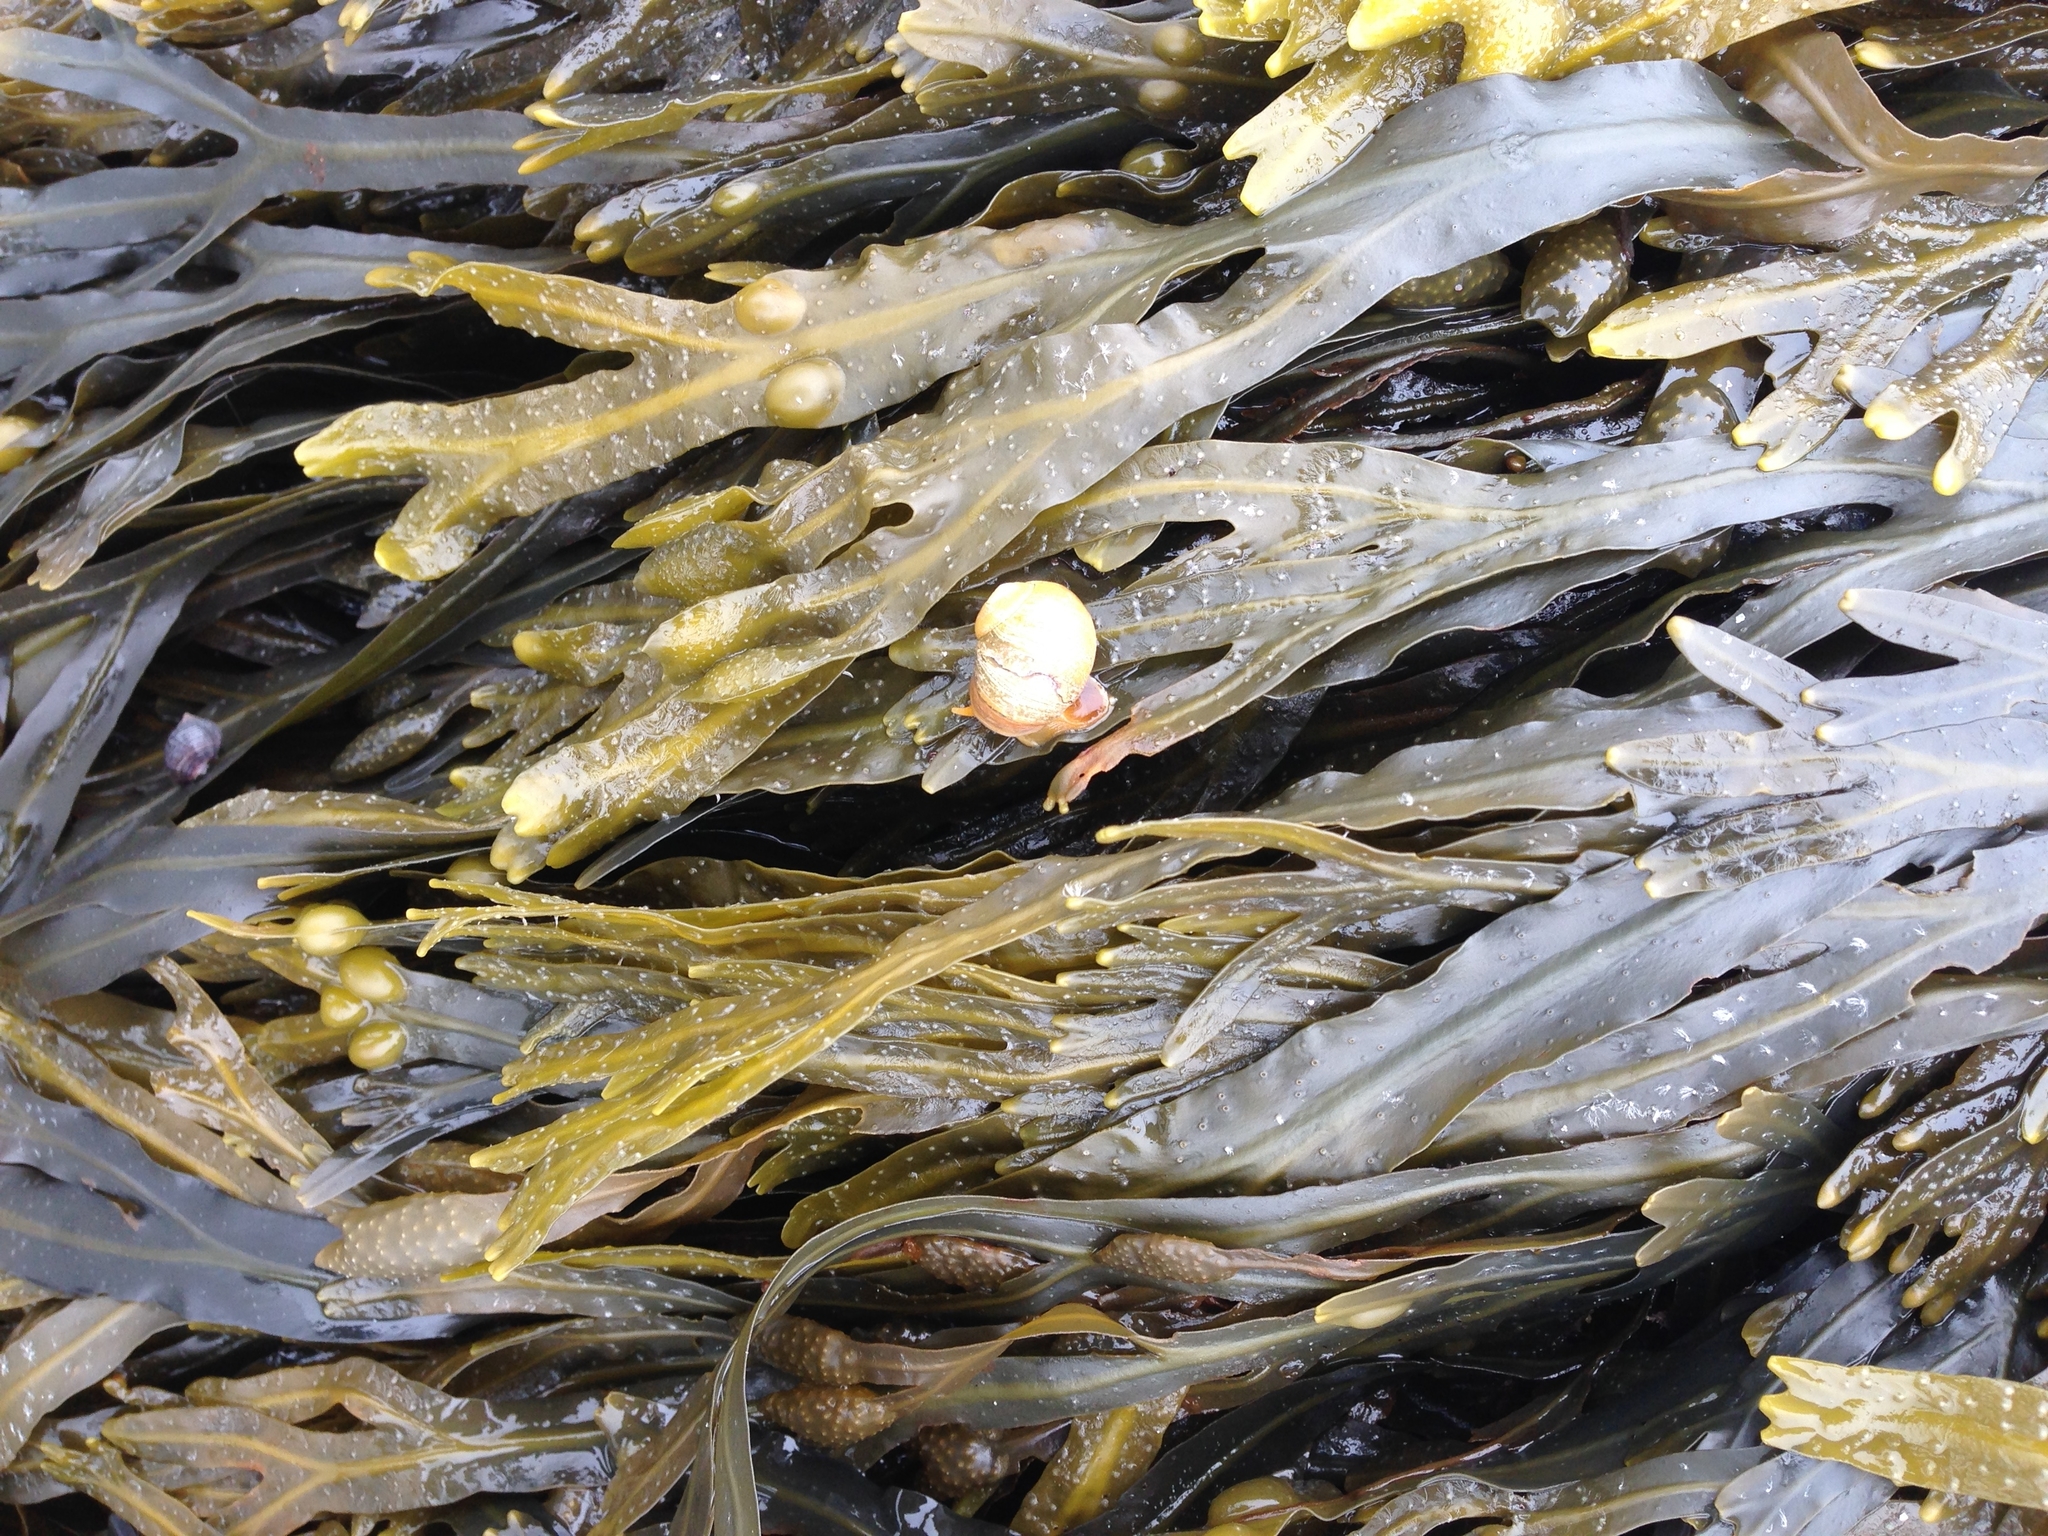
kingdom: Animalia
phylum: Mollusca
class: Gastropoda
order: Littorinimorpha
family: Littorinidae
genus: Littorina
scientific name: Littorina obtusata
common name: Flat periwinkle
